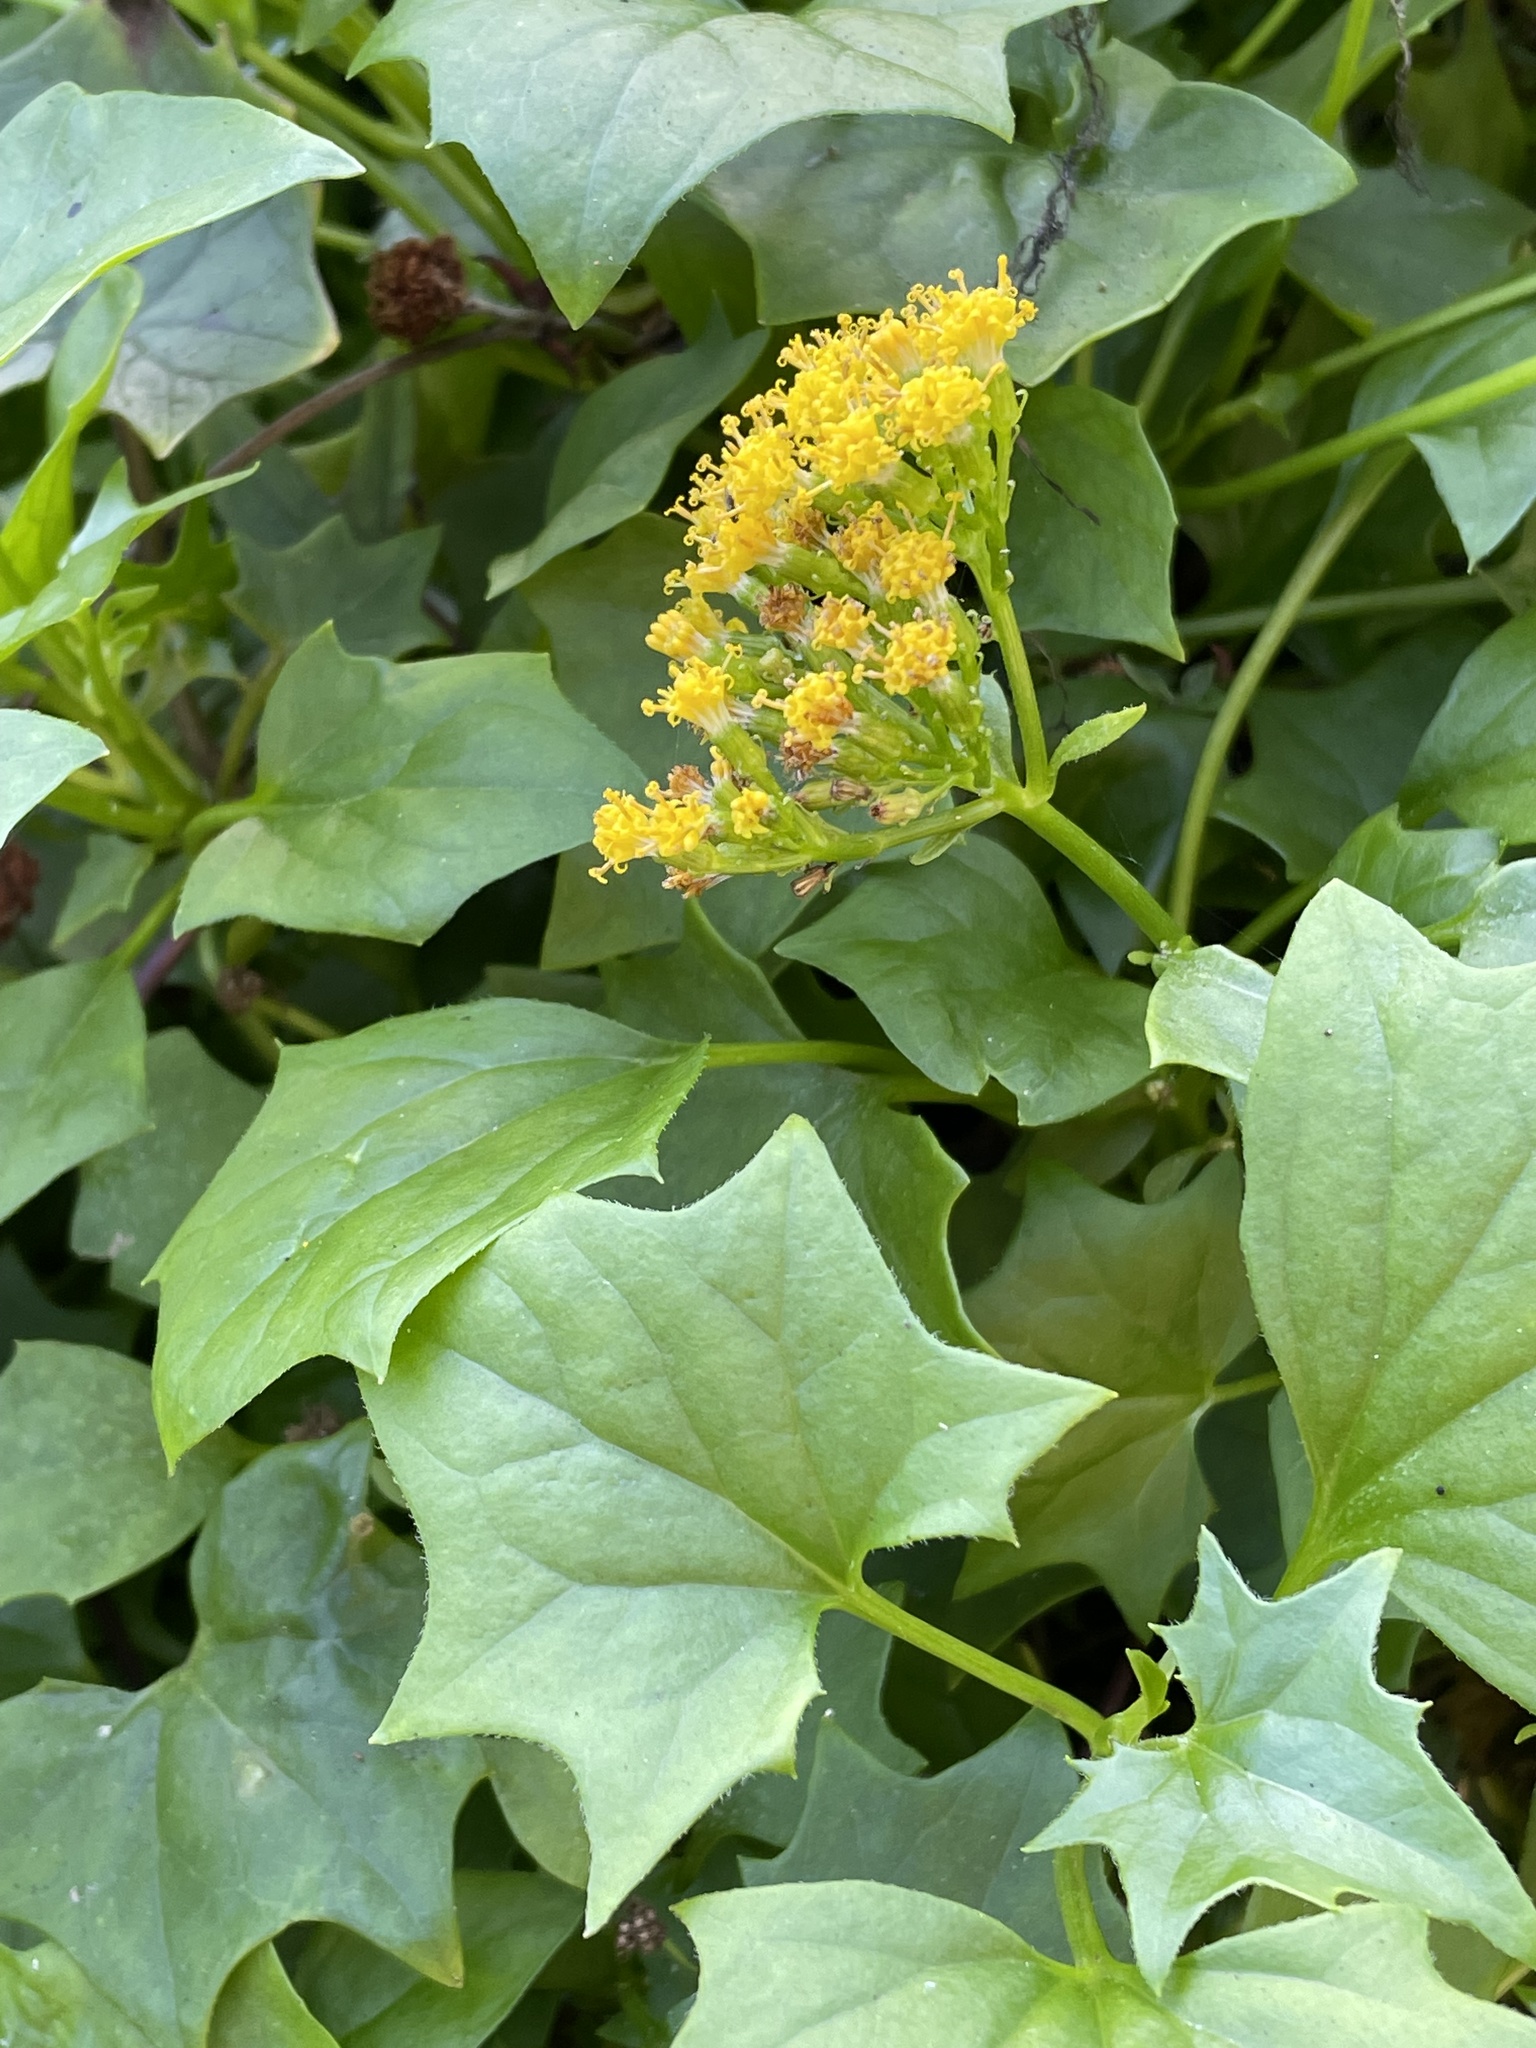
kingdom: Plantae
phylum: Tracheophyta
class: Magnoliopsida
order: Asterales
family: Asteraceae
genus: Delairea
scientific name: Delairea odorata
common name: Cape-ivy
